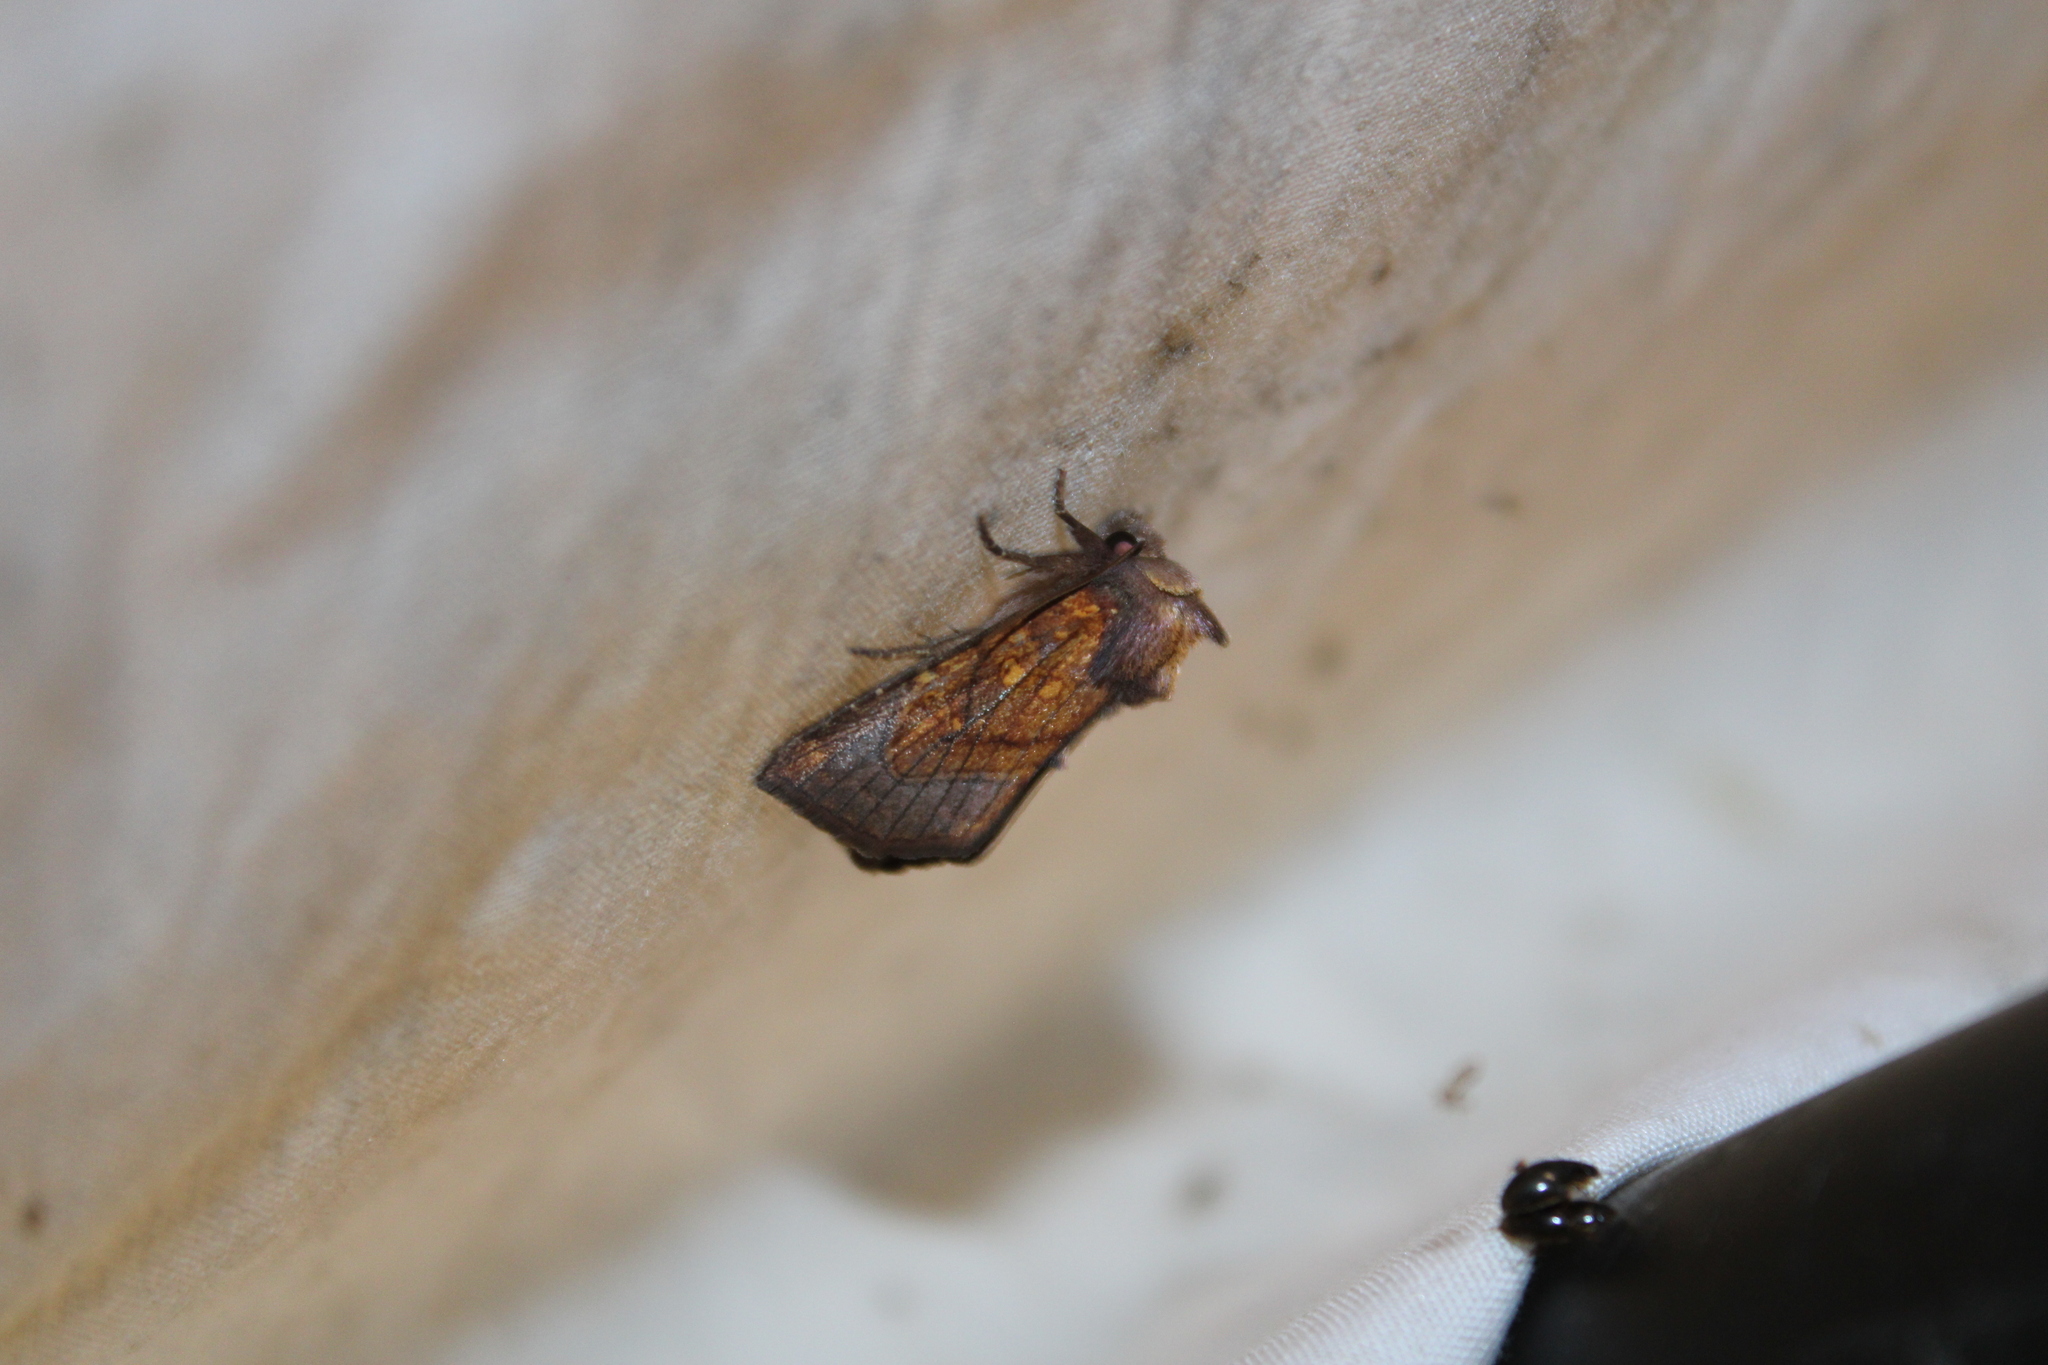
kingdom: Animalia
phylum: Arthropoda
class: Insecta
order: Lepidoptera
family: Noctuidae
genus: Papaipema
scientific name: Papaipema inquaesita
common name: Sensitive fern borer moth
